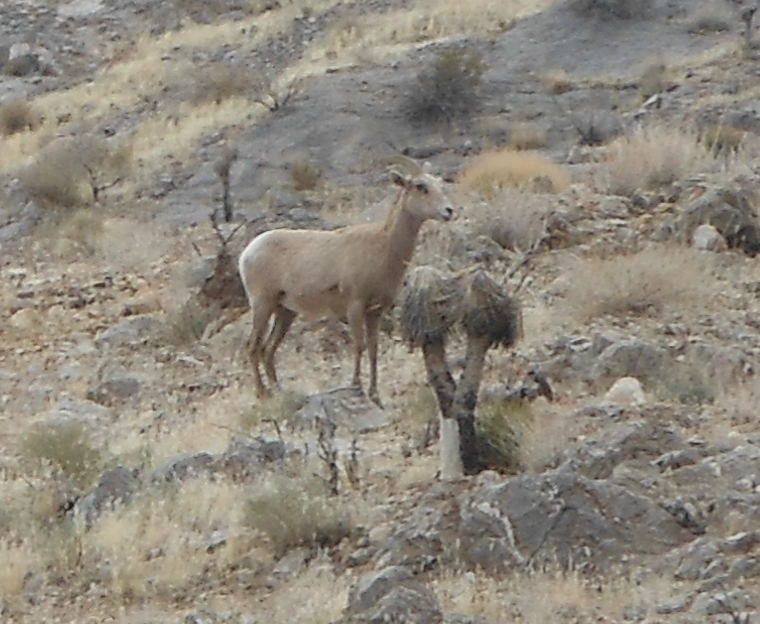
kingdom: Animalia
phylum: Chordata
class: Mammalia
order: Artiodactyla
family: Bovidae
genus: Ovis
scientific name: Ovis canadensis
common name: Bighorn sheep
